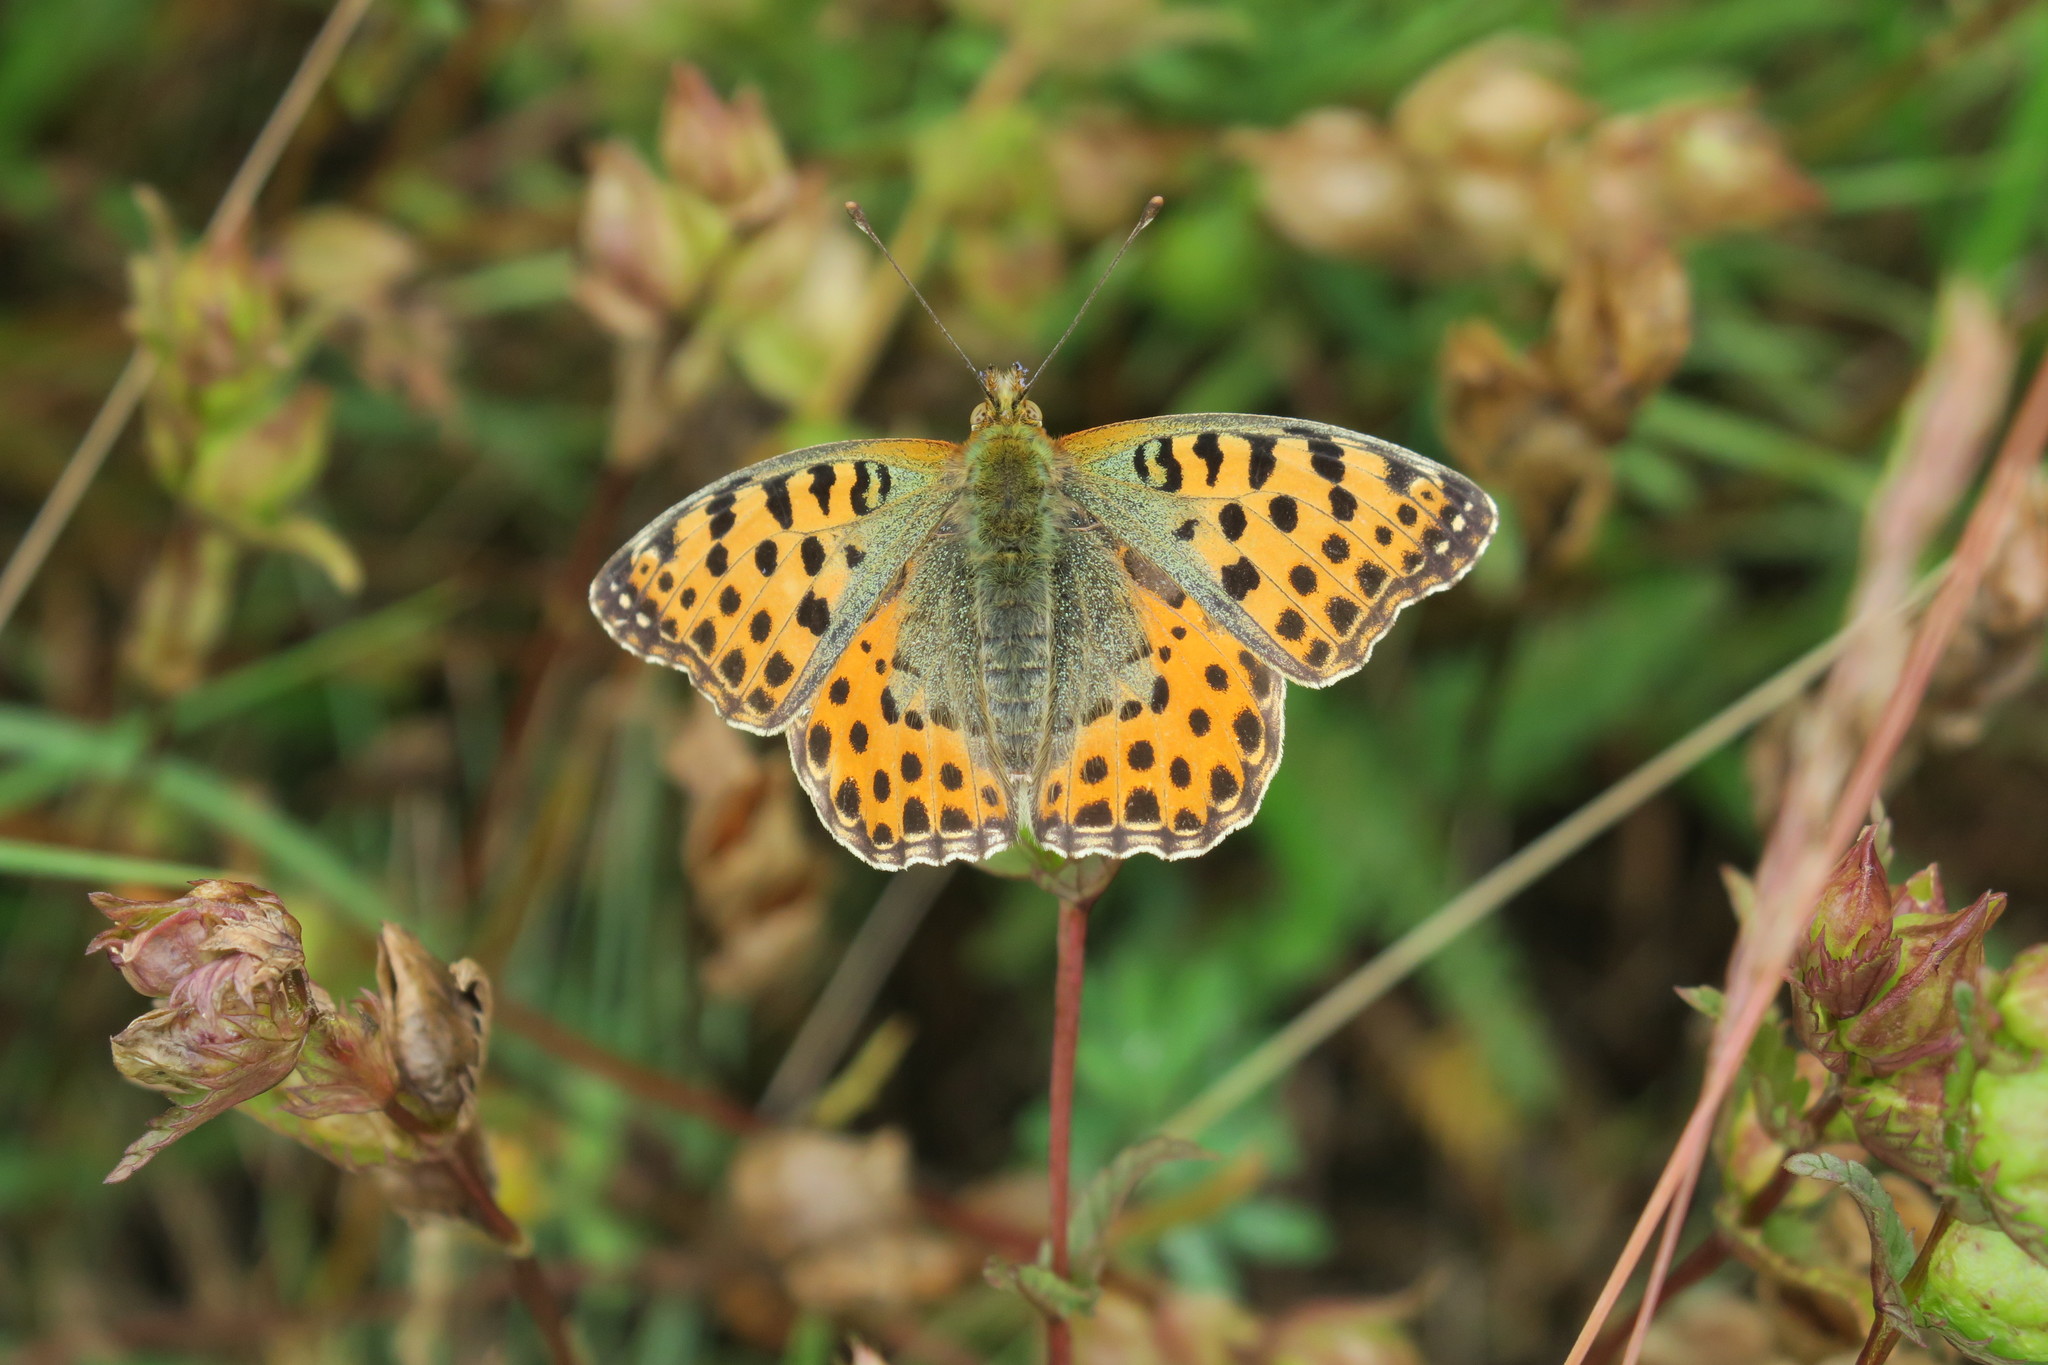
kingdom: Animalia
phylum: Arthropoda
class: Insecta
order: Lepidoptera
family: Nymphalidae
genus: Issoria
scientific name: Issoria lathonia
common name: Queen of spain fritillary
